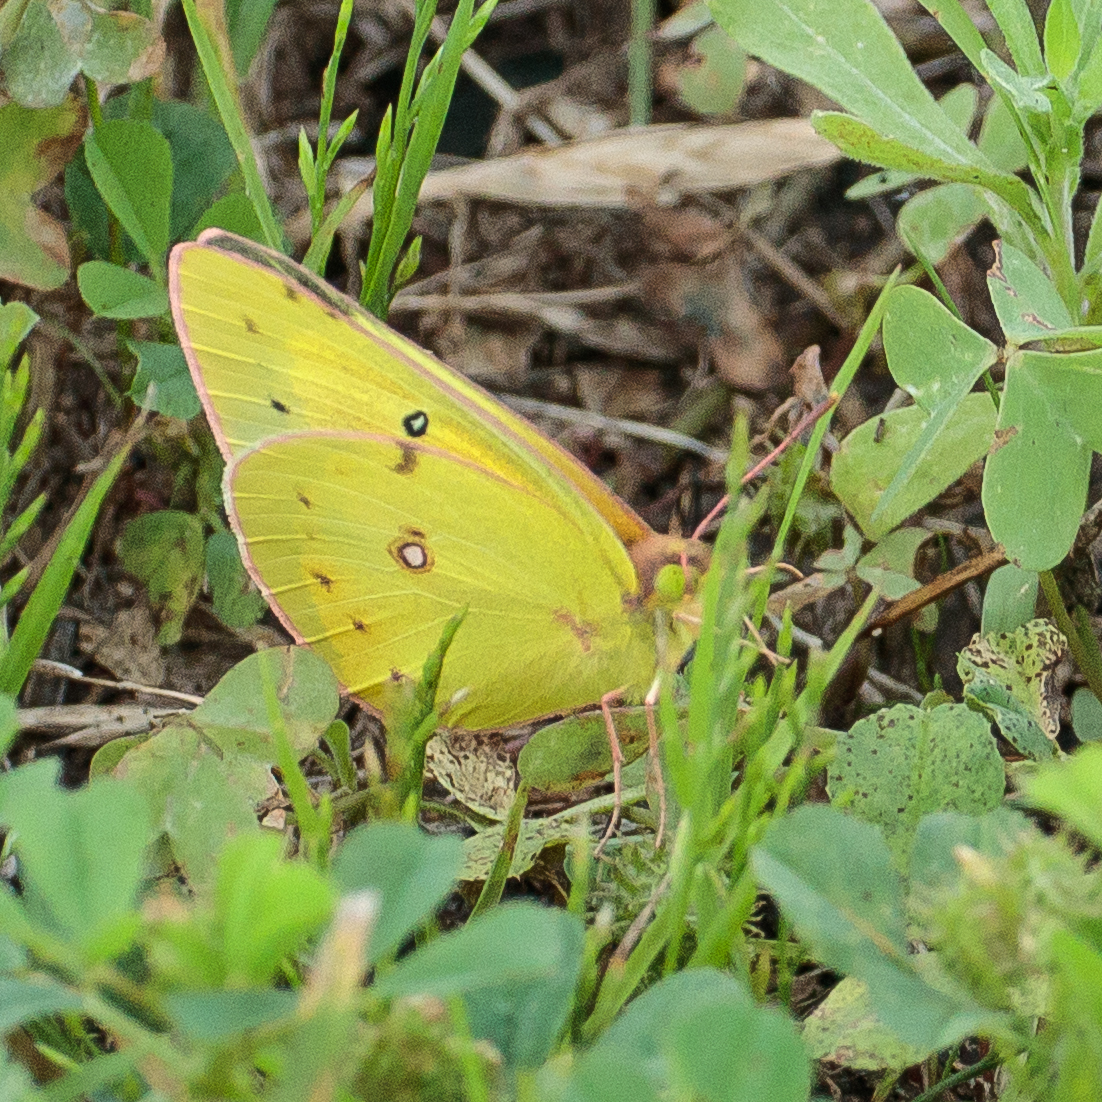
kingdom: Animalia
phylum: Arthropoda
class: Insecta
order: Lepidoptera
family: Pieridae
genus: Colias
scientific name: Colias eurytheme
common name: Alfalfa butterfly
